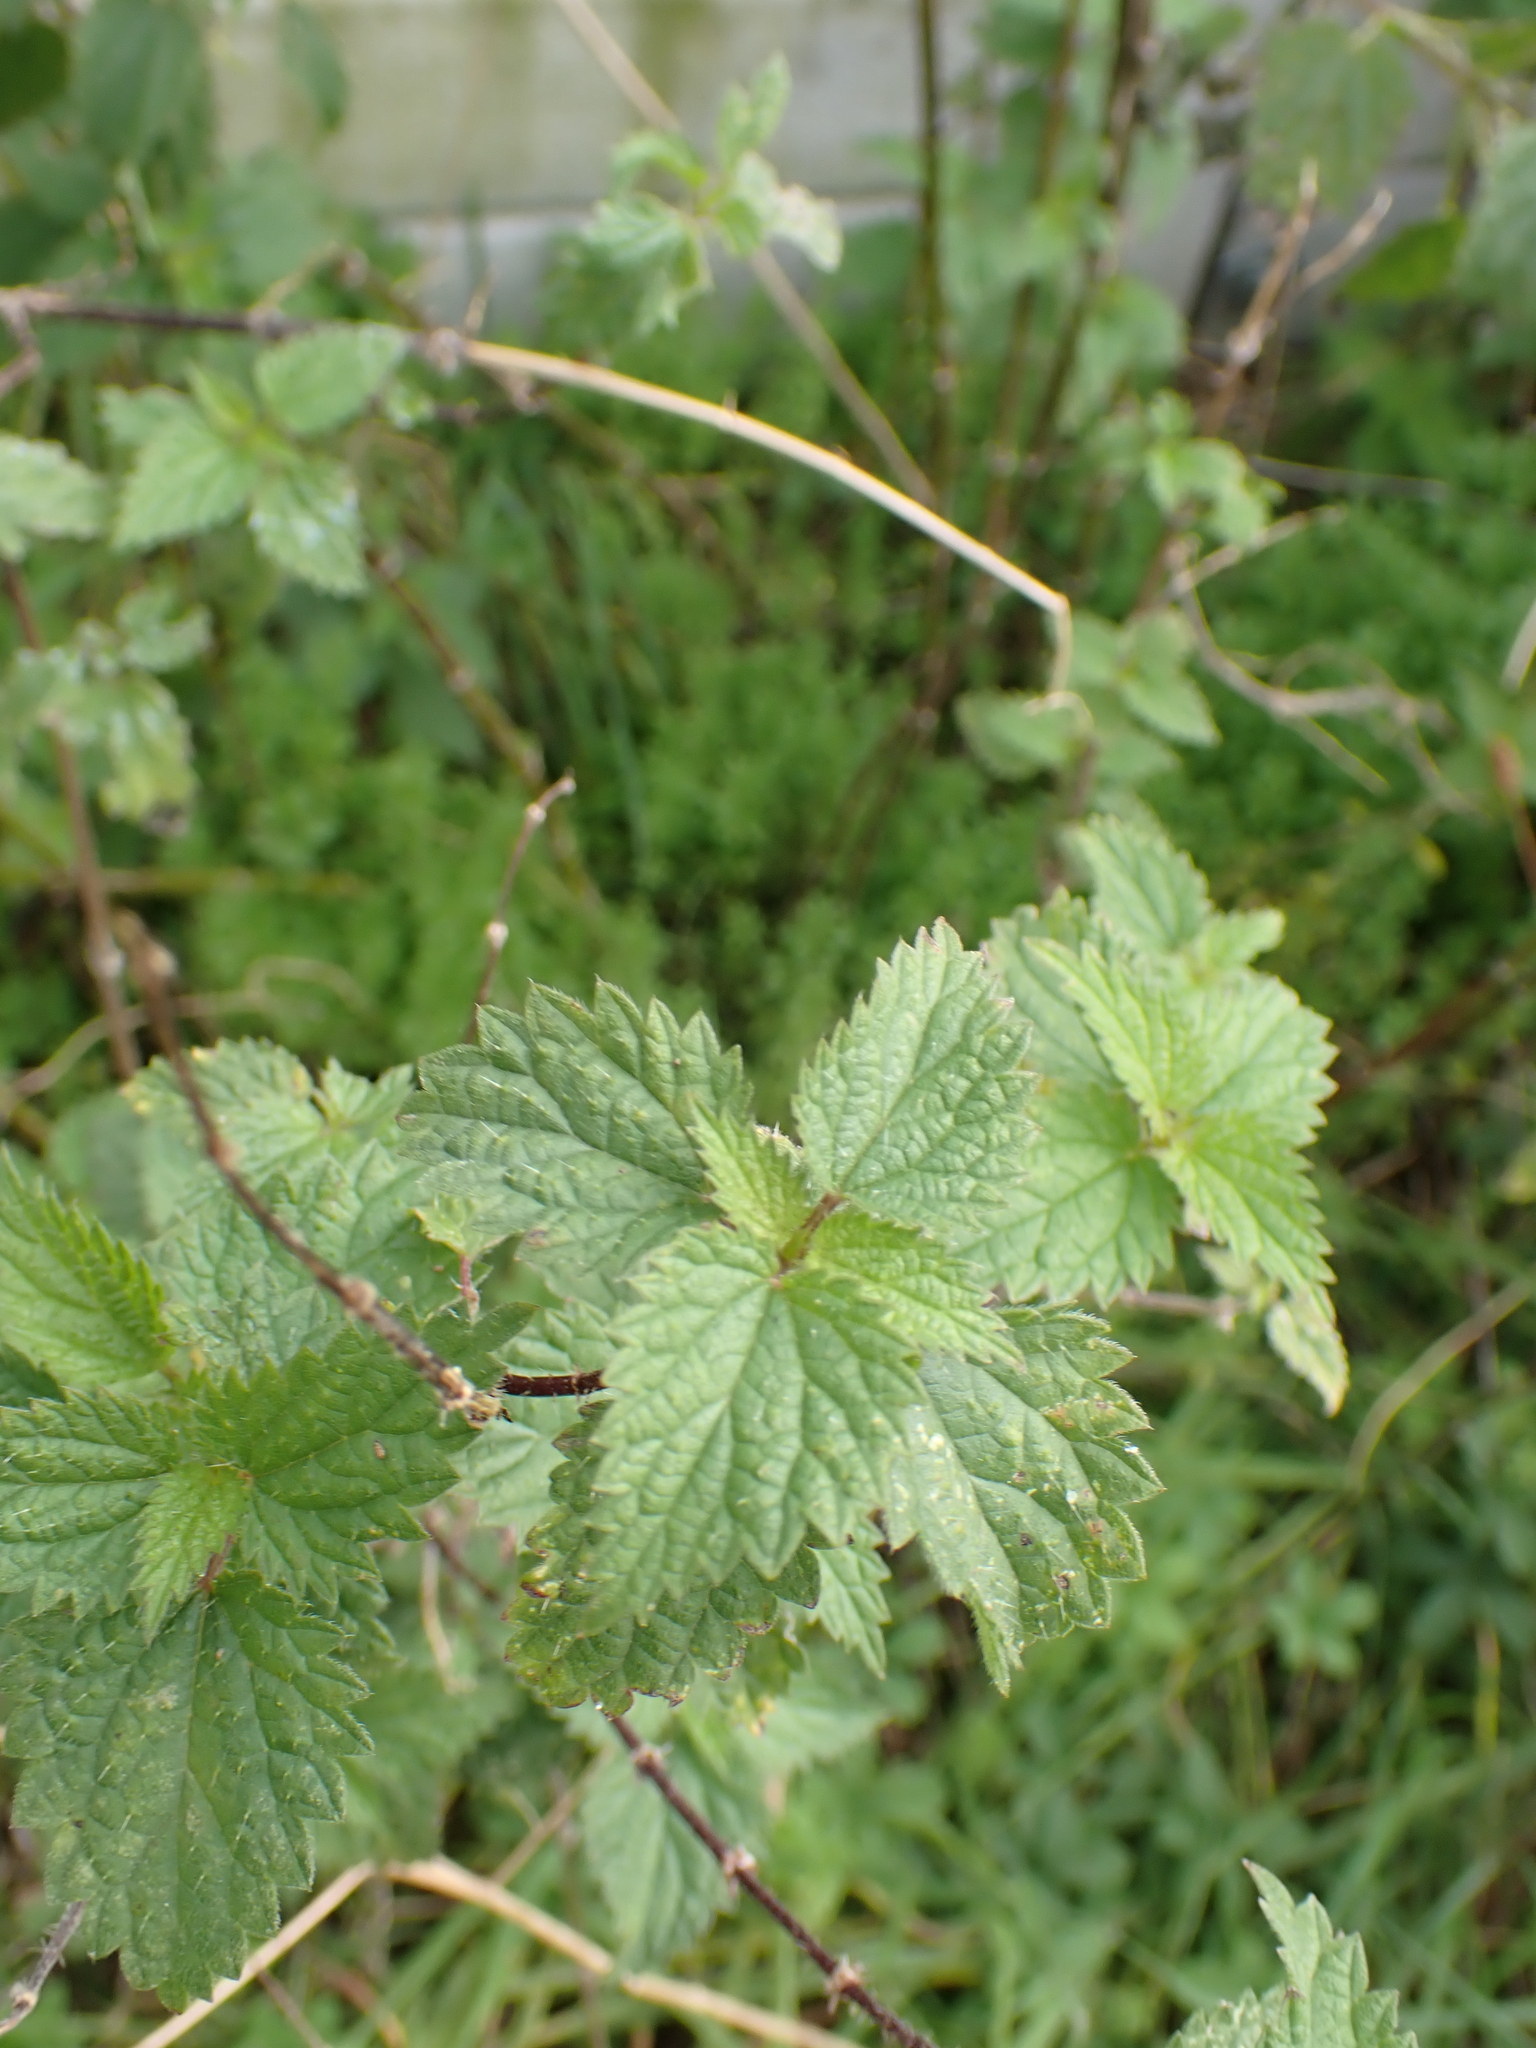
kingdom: Plantae
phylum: Tracheophyta
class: Magnoliopsida
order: Rosales
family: Urticaceae
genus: Urtica
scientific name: Urtica dioica
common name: Common nettle
